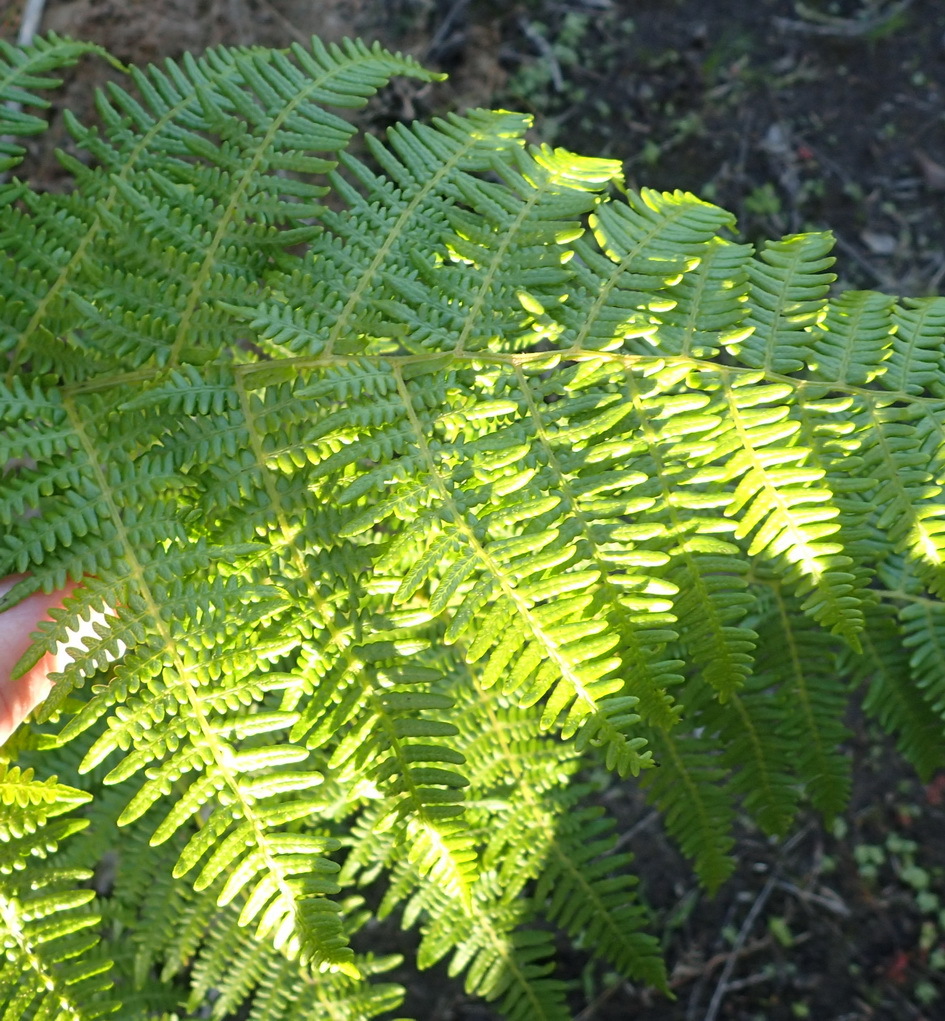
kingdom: Plantae
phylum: Tracheophyta
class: Polypodiopsida
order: Polypodiales
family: Dennstaedtiaceae
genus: Pteridium
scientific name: Pteridium aquilinum
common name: Bracken
